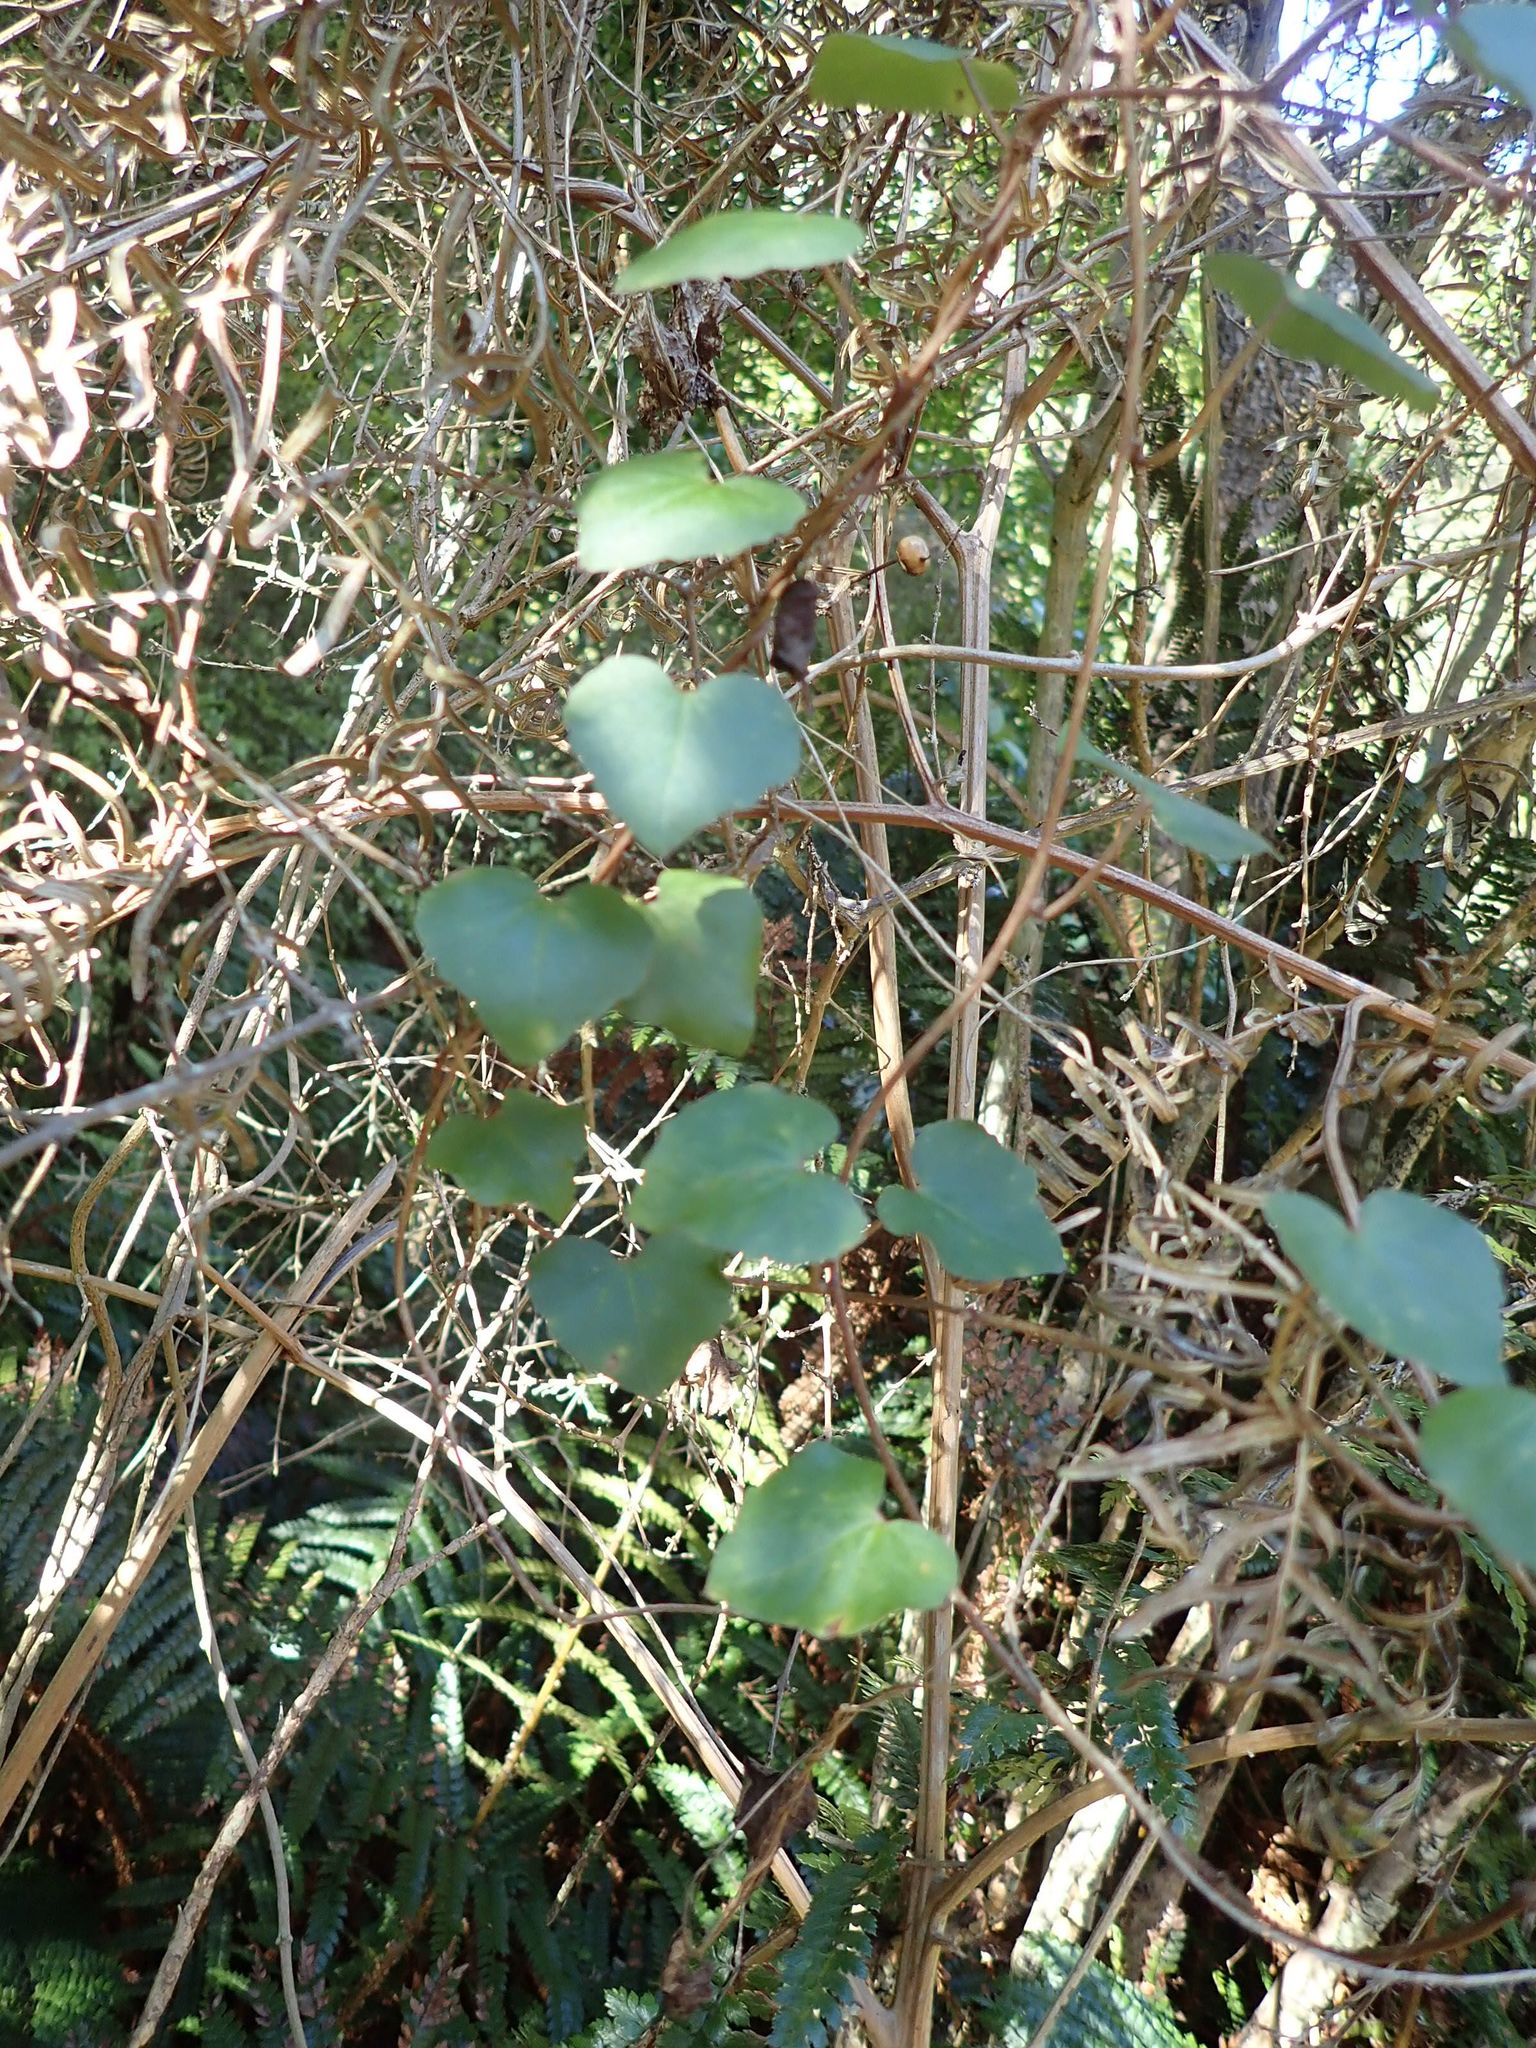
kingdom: Plantae
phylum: Tracheophyta
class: Magnoliopsida
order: Solanales
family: Convolvulaceae
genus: Calystegia
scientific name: Calystegia tuguriorum
